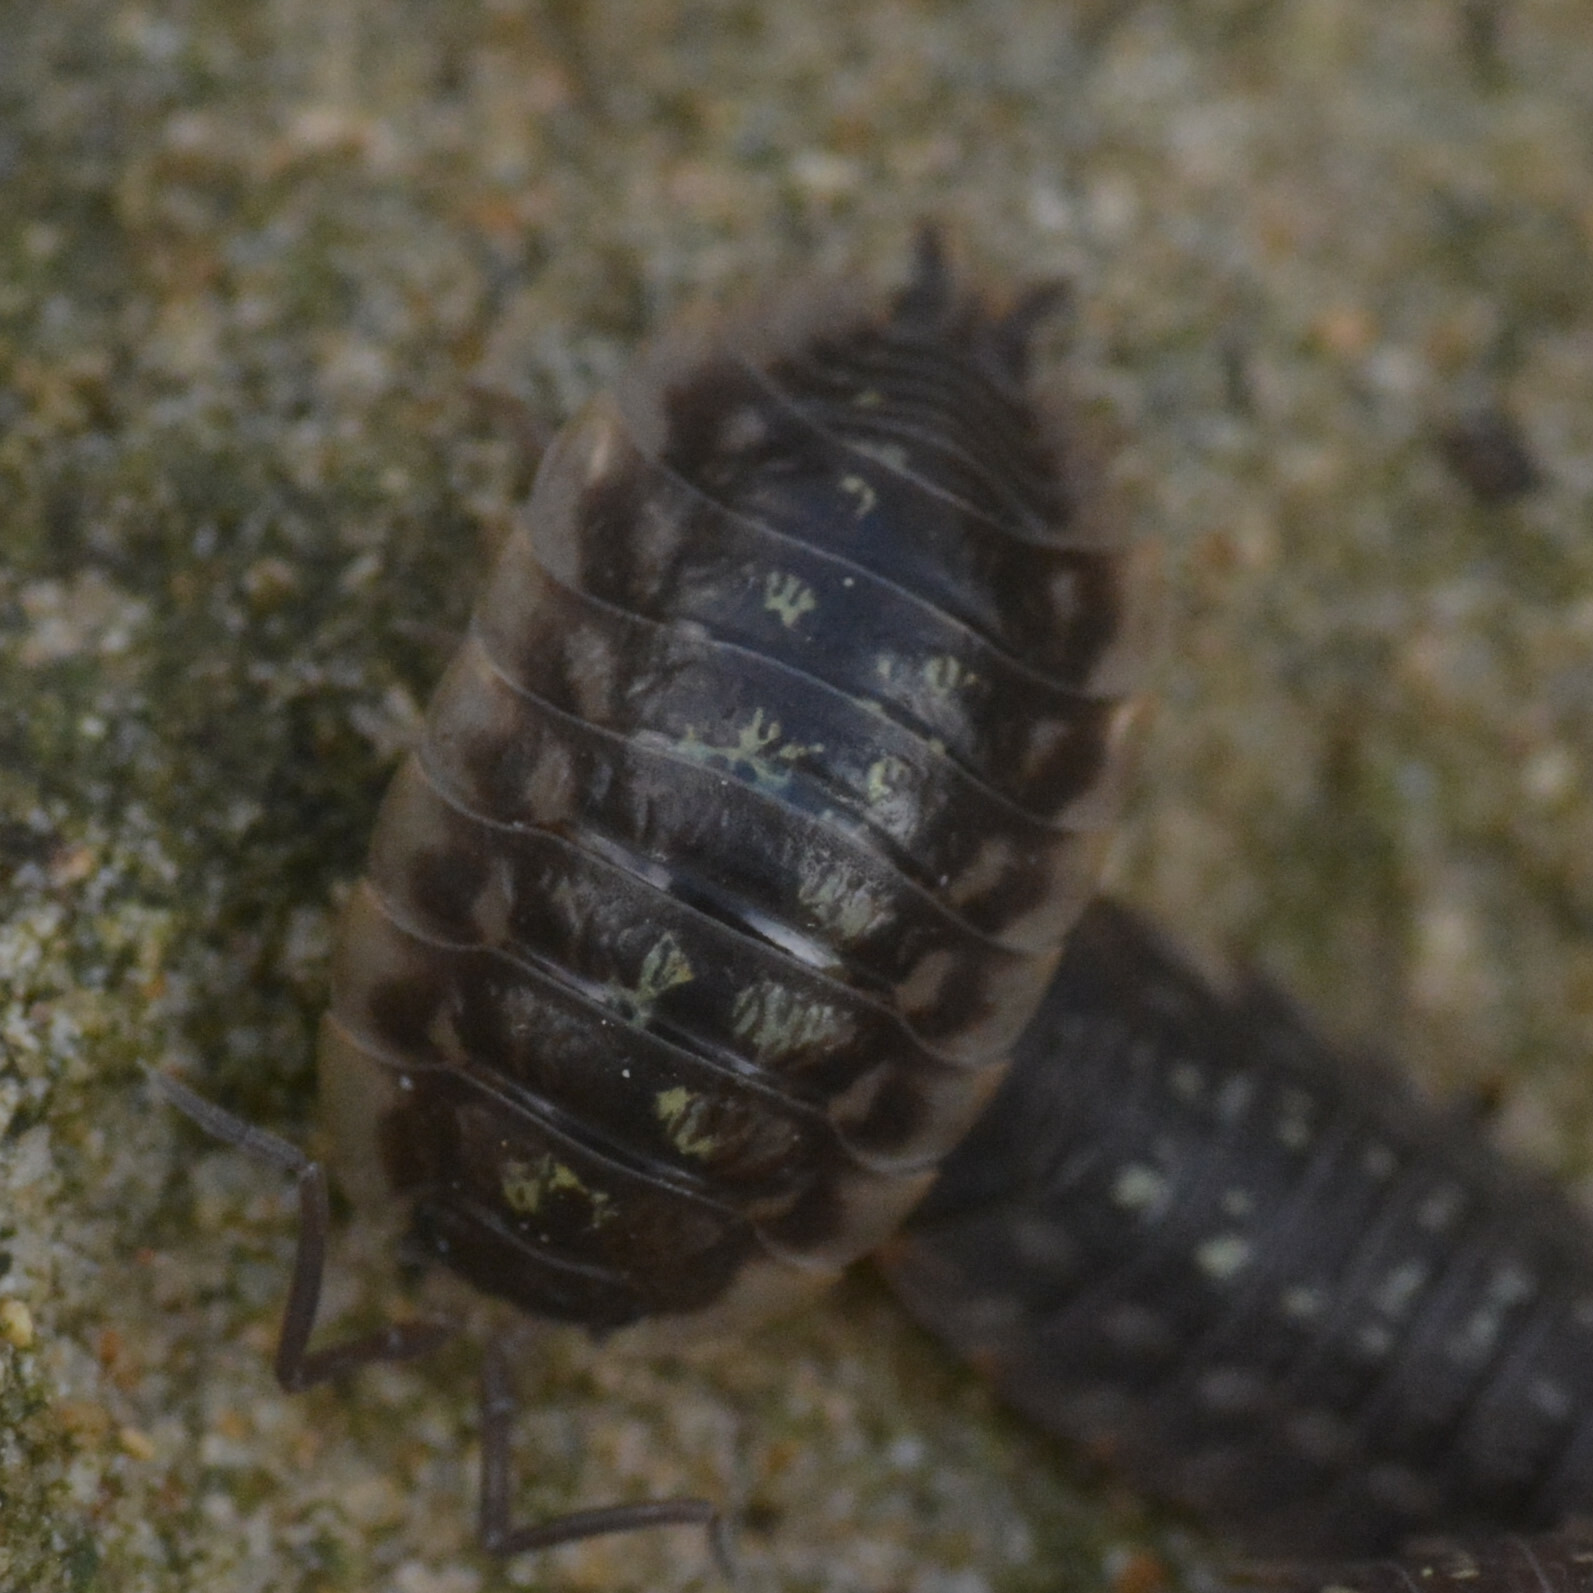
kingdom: Animalia
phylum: Arthropoda
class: Malacostraca
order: Isopoda
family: Oniscidae
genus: Oniscus
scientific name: Oniscus asellus
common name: Common shiny woodlouse
